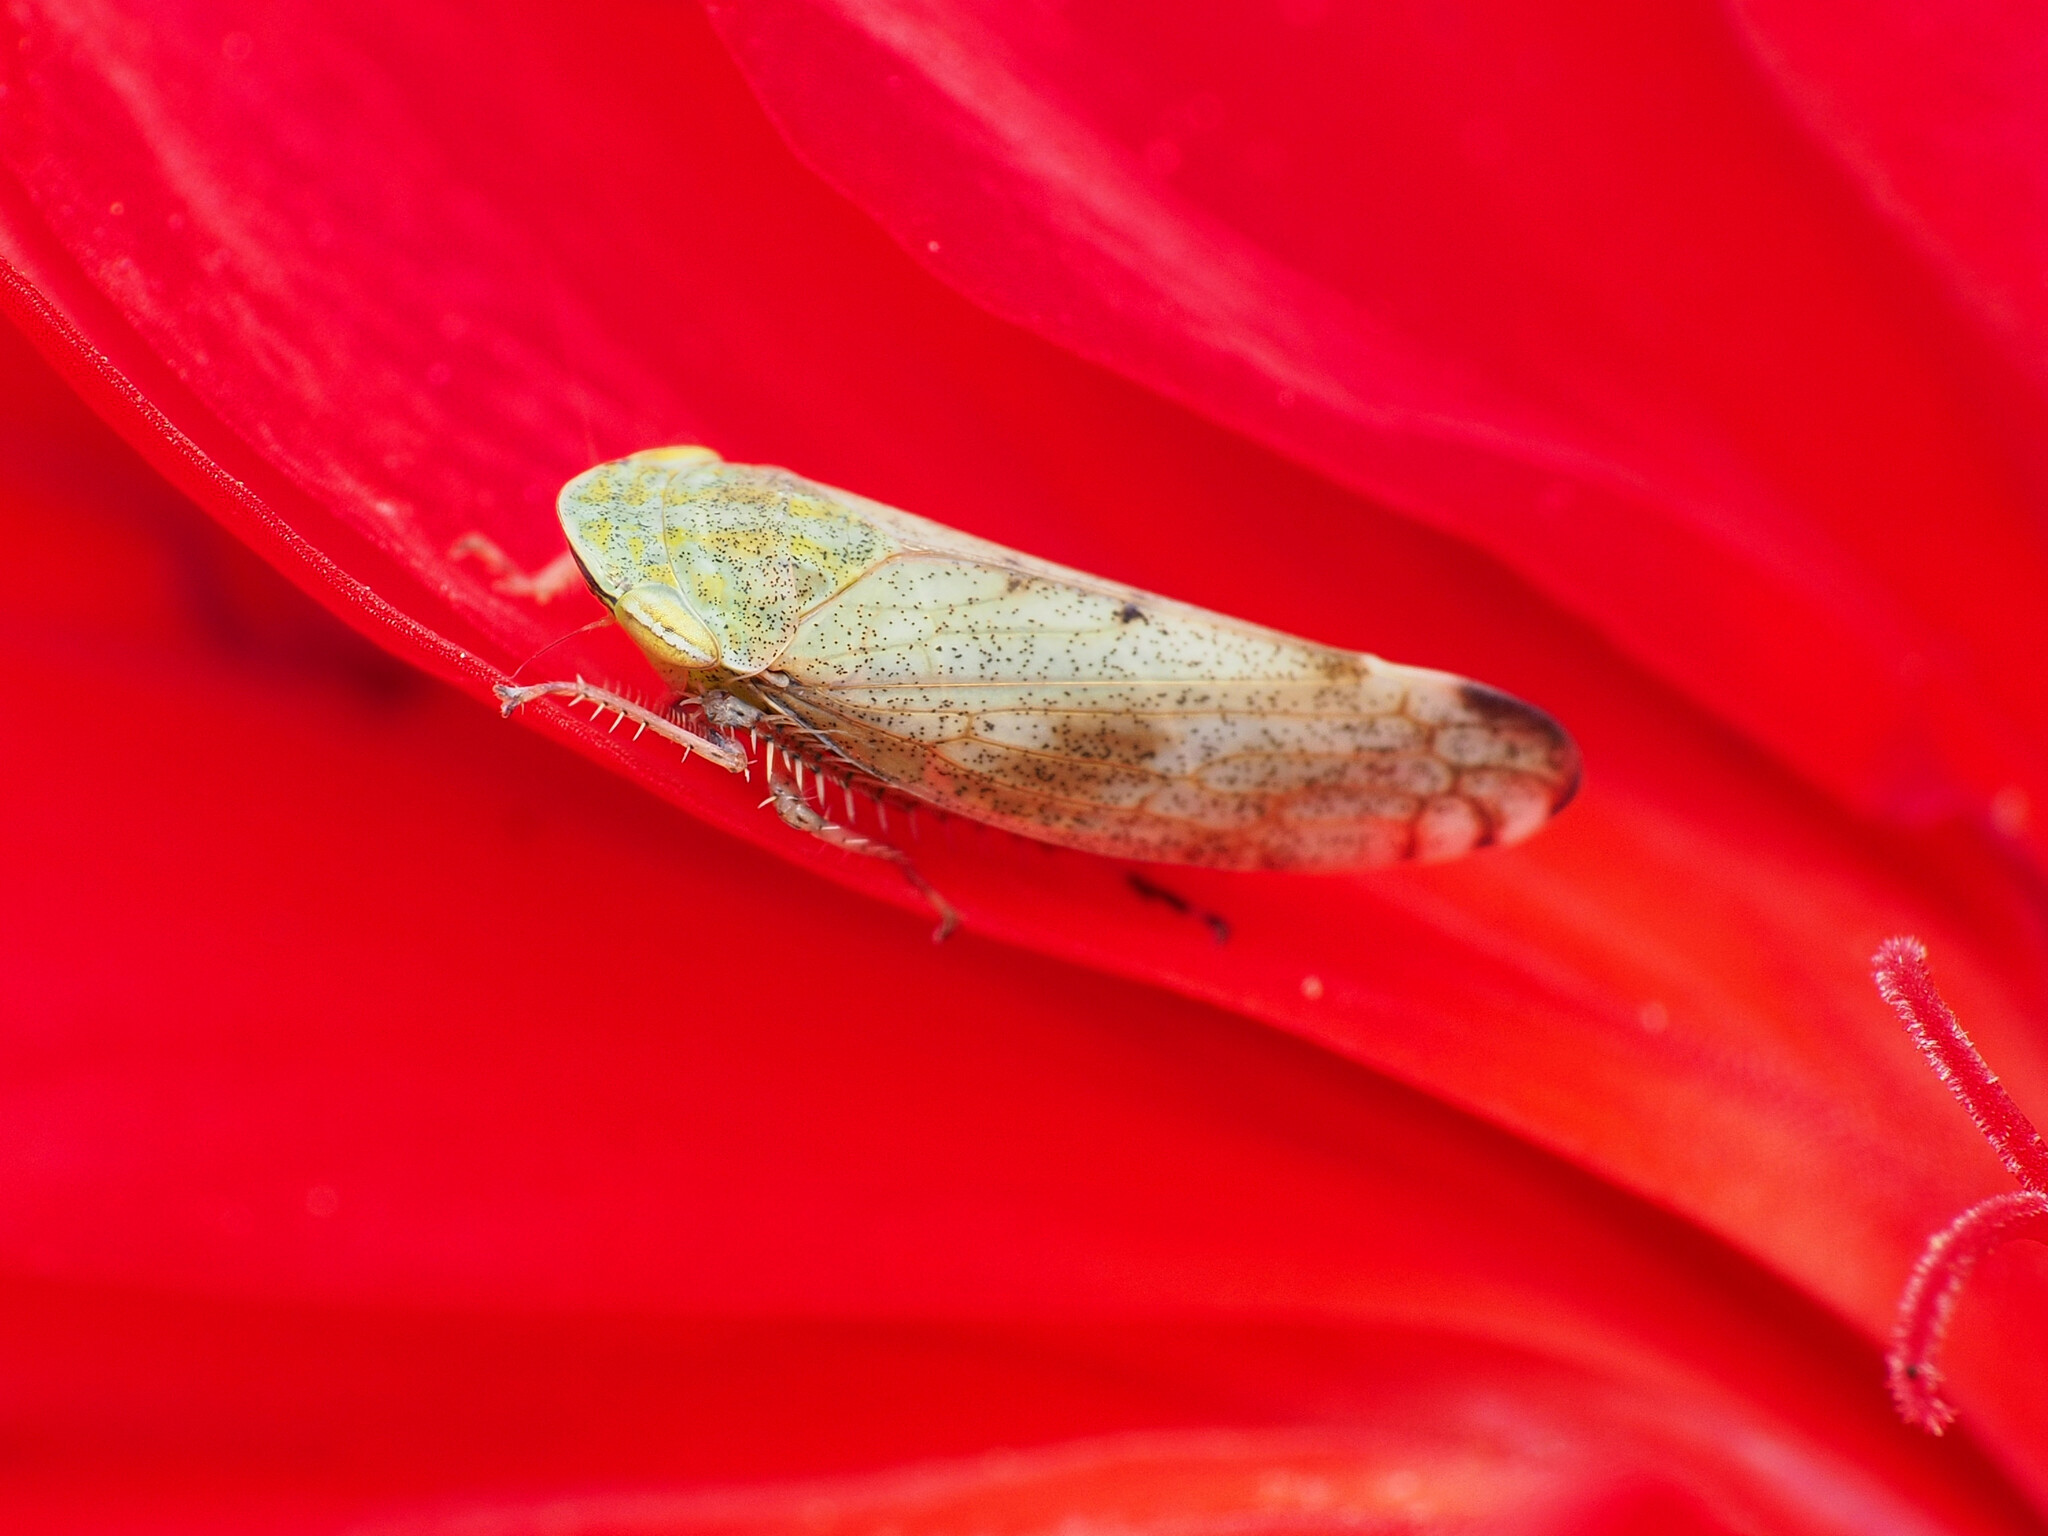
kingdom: Animalia
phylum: Arthropoda
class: Insecta
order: Hemiptera
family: Cicadellidae
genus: Fieberiella
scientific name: Fieberiella florii
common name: Flor’s leafhopper
